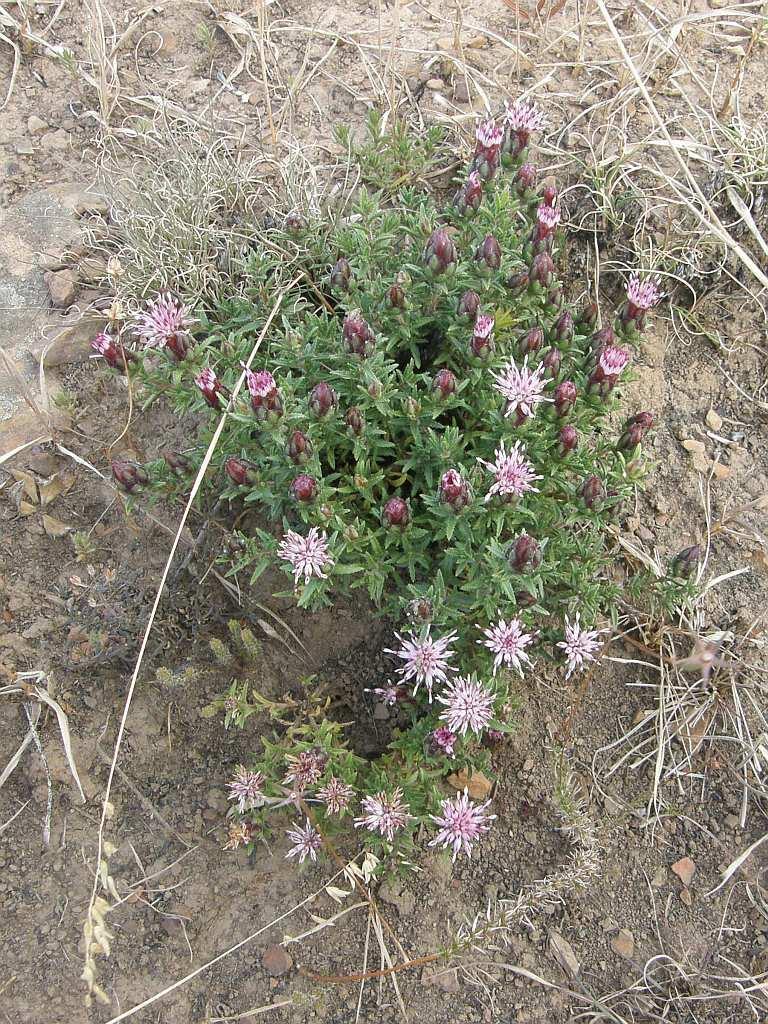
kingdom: Plantae
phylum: Tracheophyta
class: Magnoliopsida
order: Asterales
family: Asteraceae
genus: Pteronia
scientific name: Pteronia hirsuta
